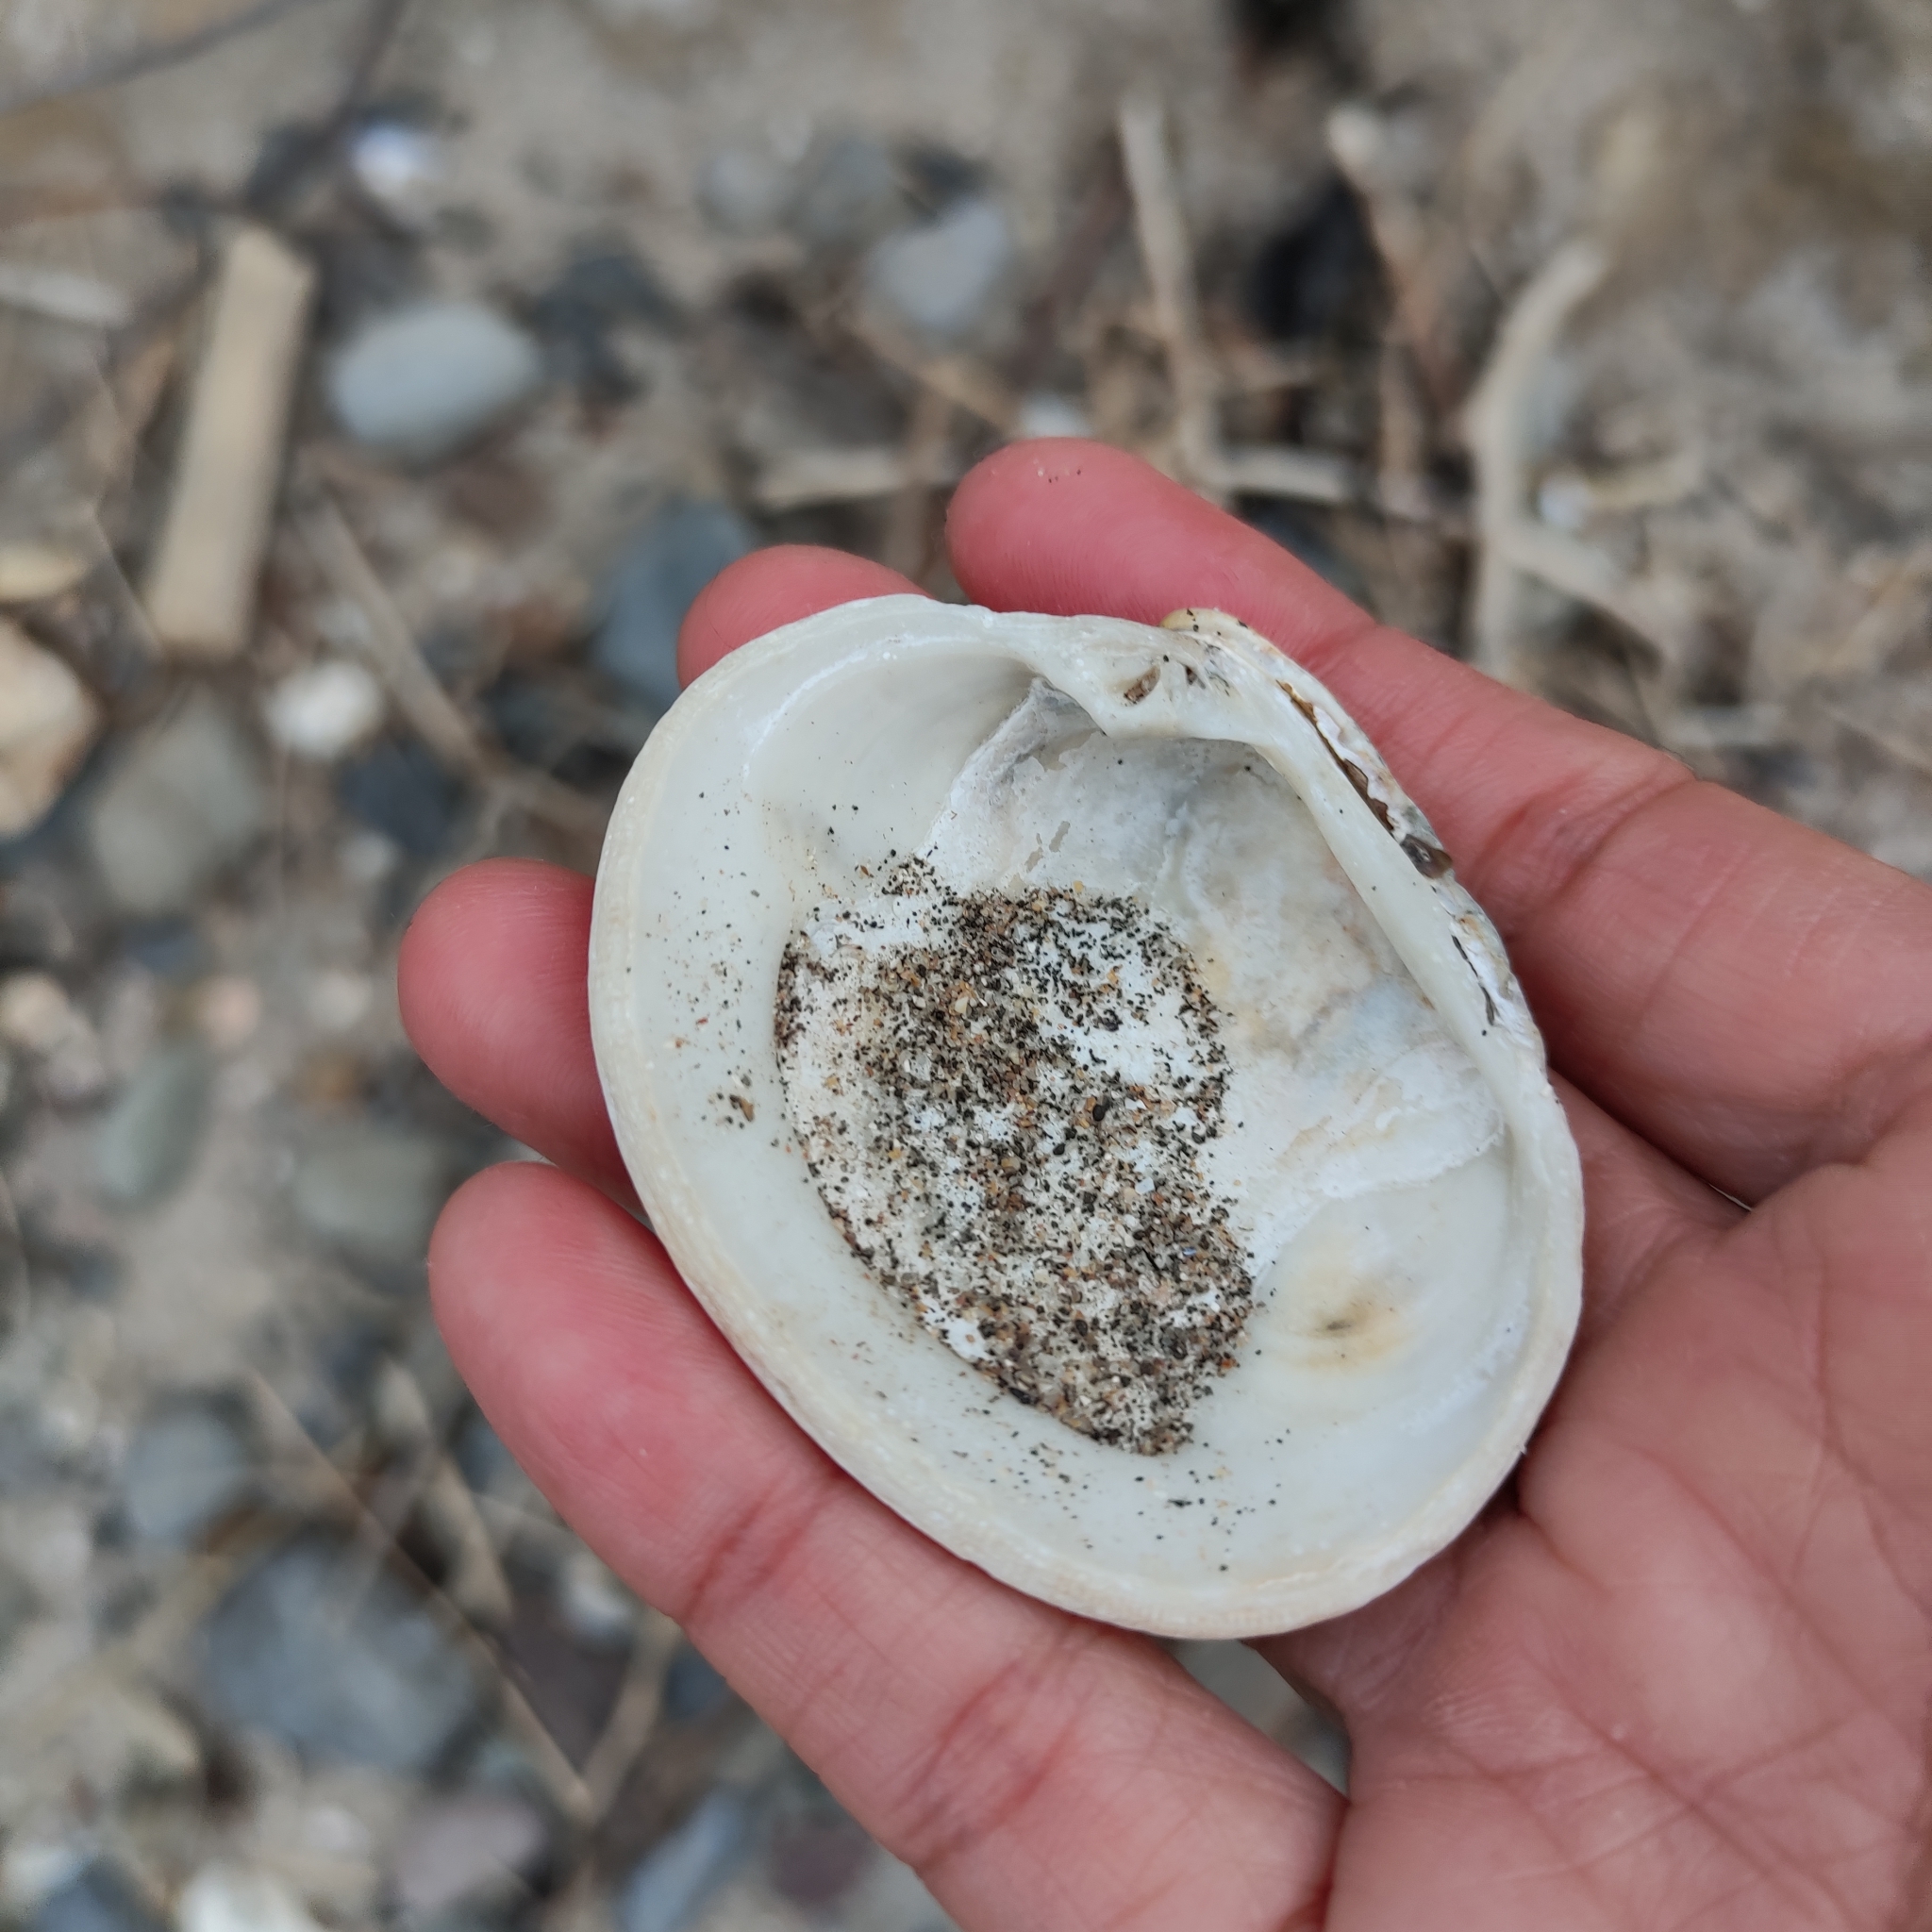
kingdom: Animalia
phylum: Mollusca
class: Bivalvia
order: Venerida
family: Veneridae
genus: Dosina
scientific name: Dosina mactracea
